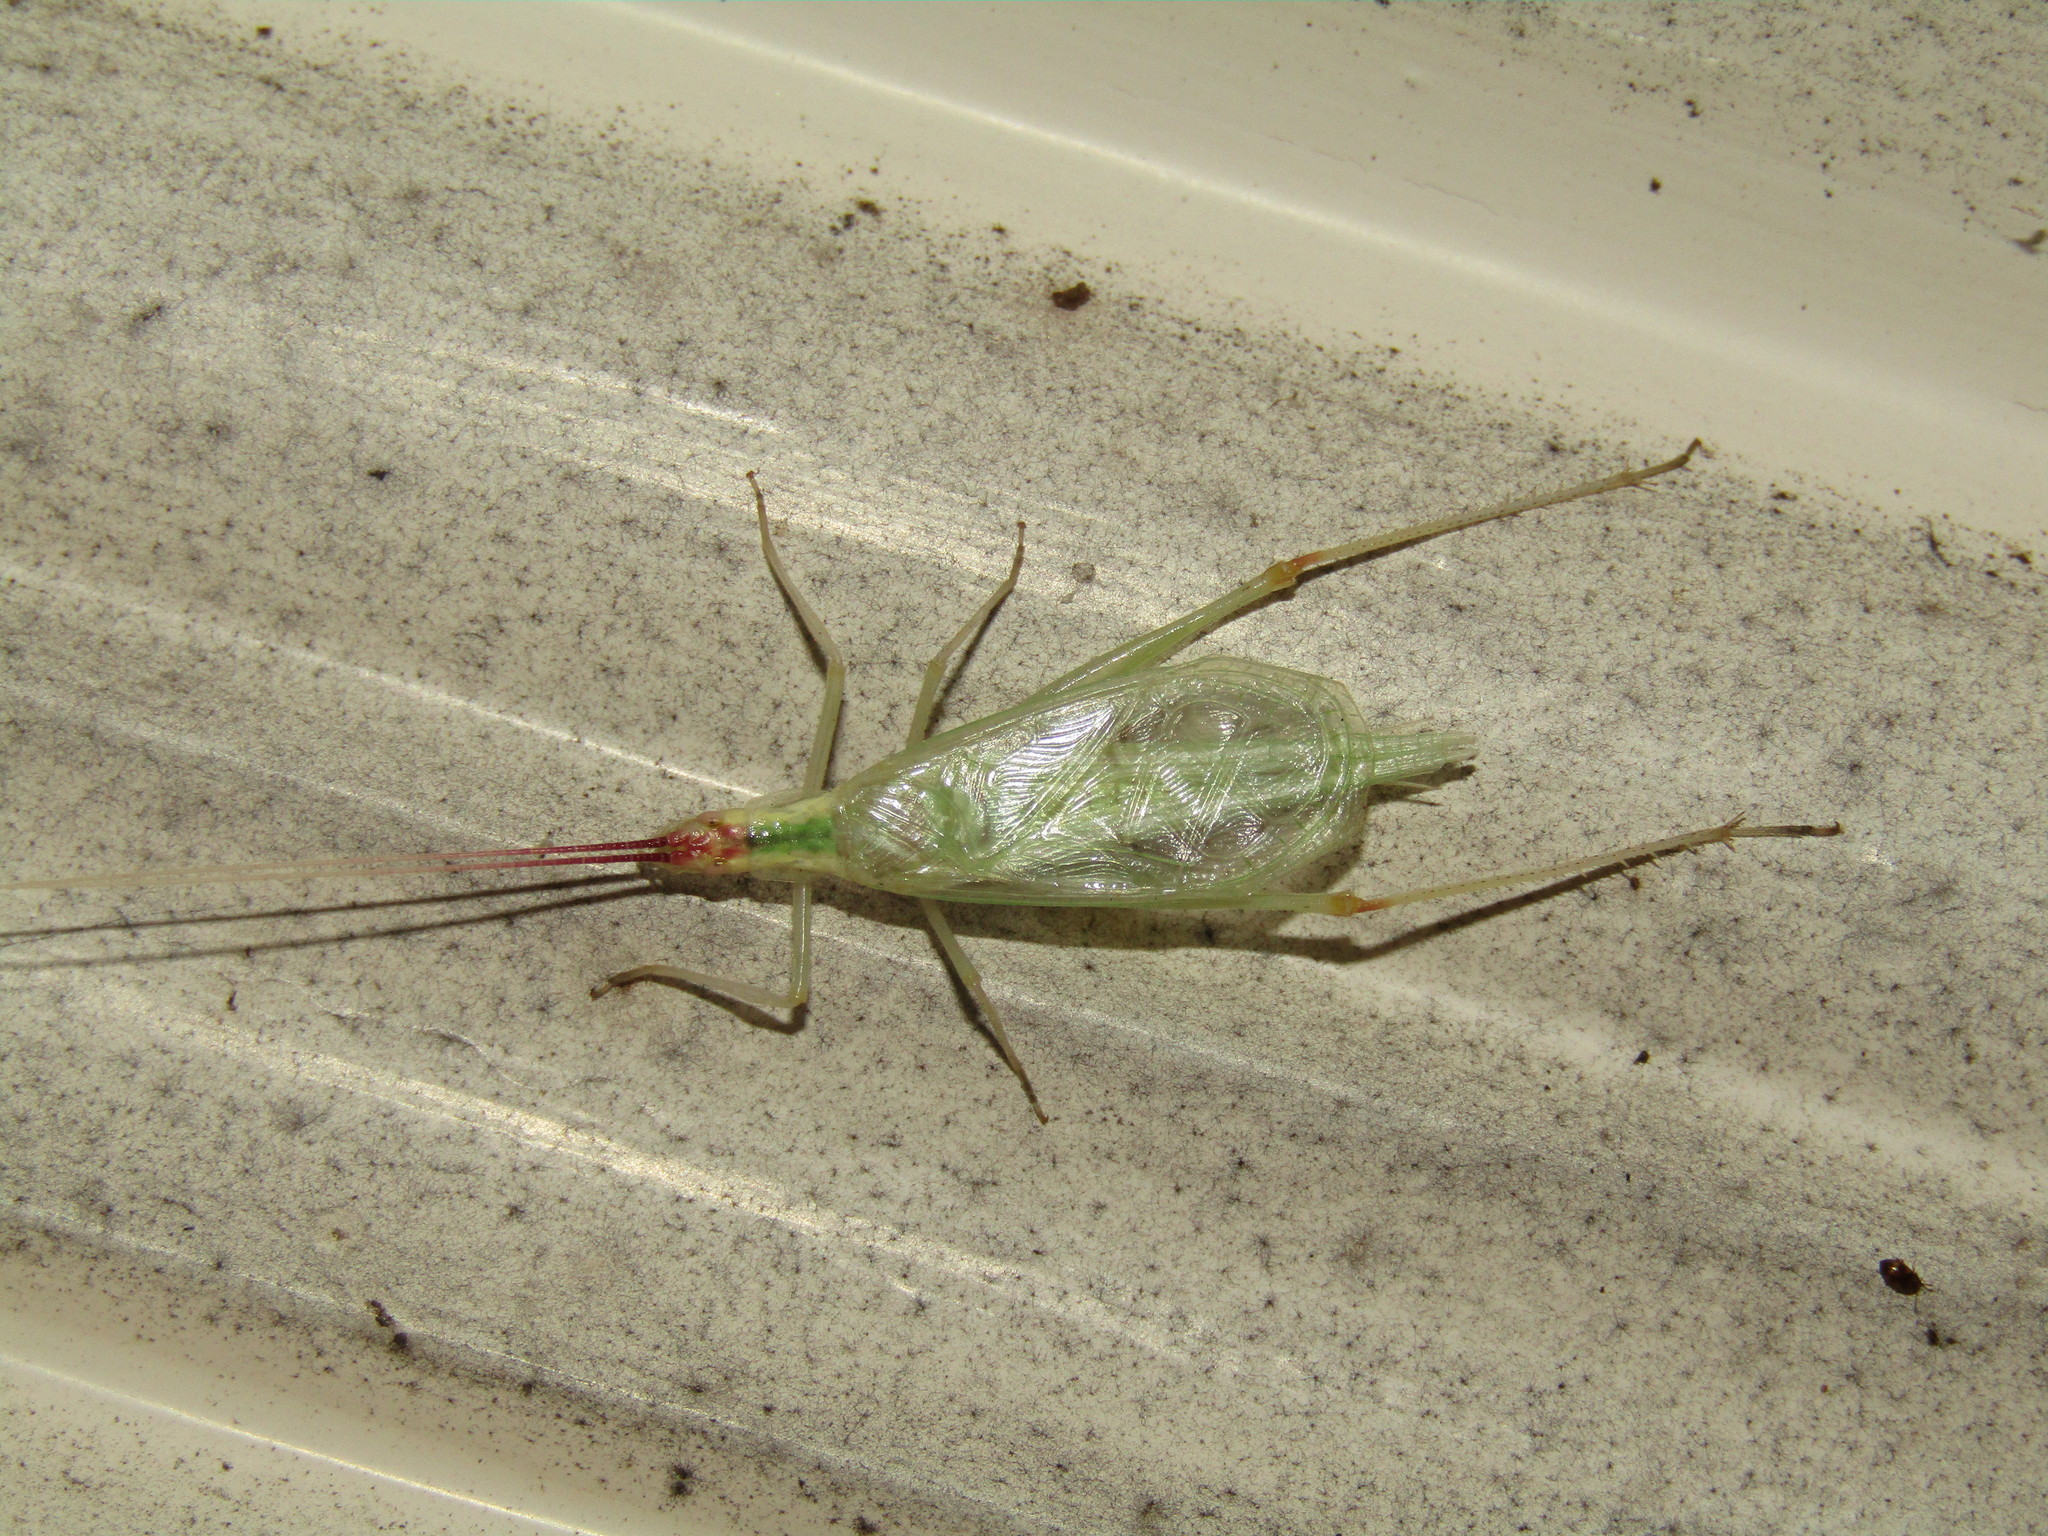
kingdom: Animalia
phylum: Arthropoda
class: Insecta
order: Orthoptera
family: Gryllidae
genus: Oecanthus
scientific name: Oecanthus latipennis
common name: Broad-winged tree cricket
